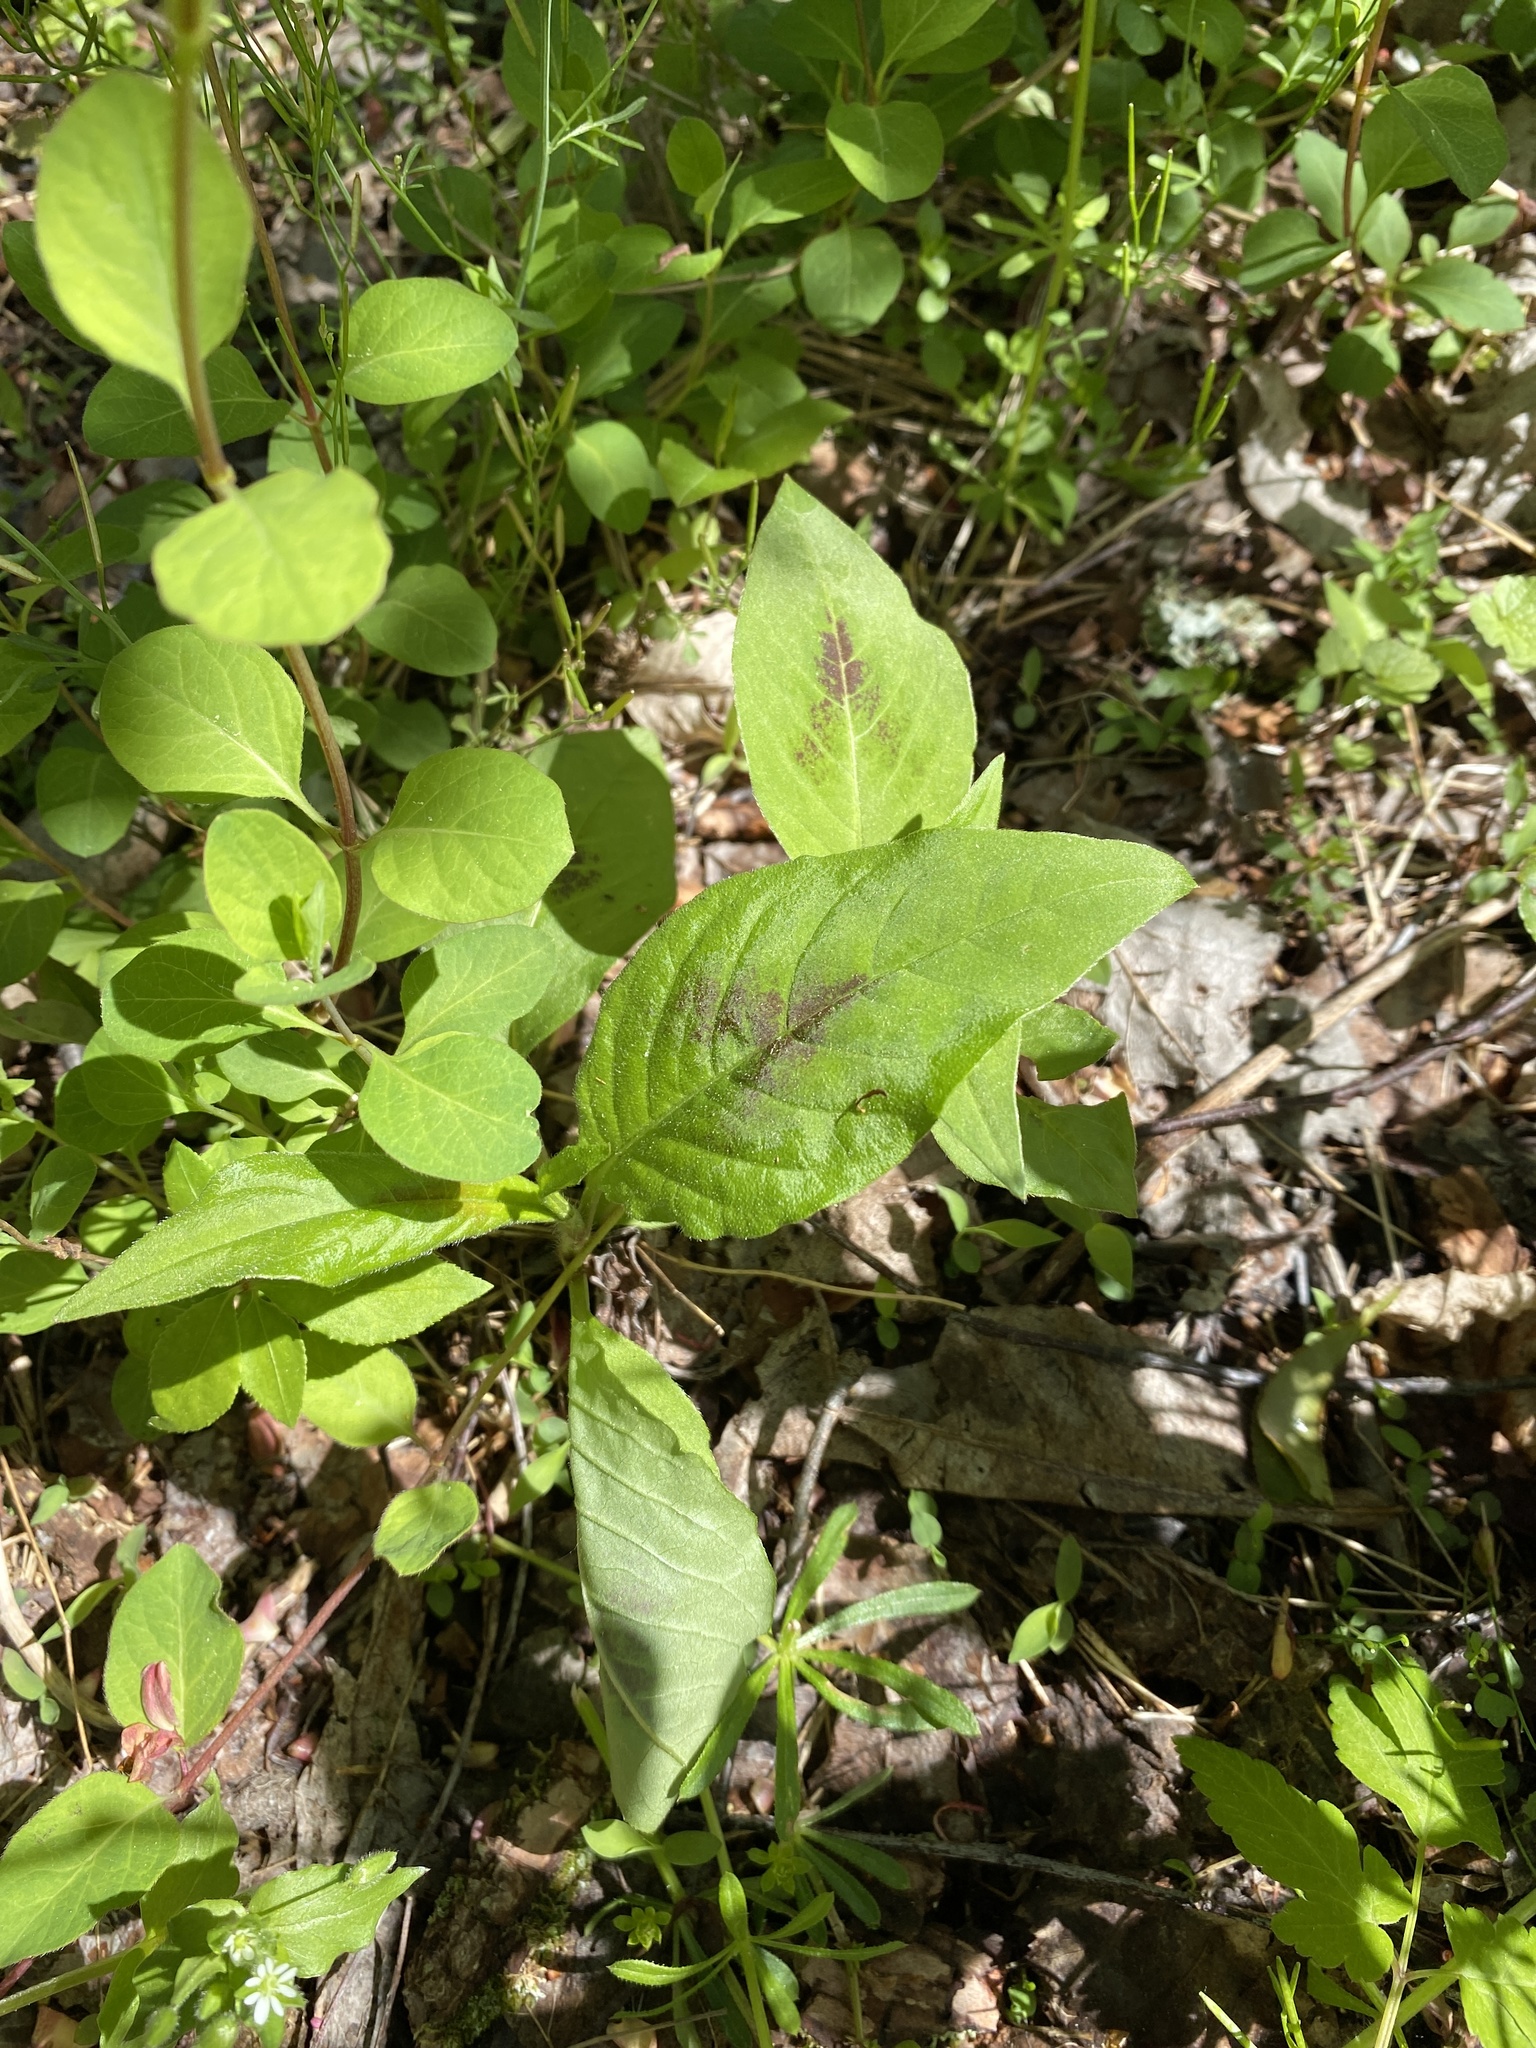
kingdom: Plantae
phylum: Tracheophyta
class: Magnoliopsida
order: Caryophyllales
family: Polygonaceae
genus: Persicaria
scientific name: Persicaria virginiana
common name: Jumpseed
